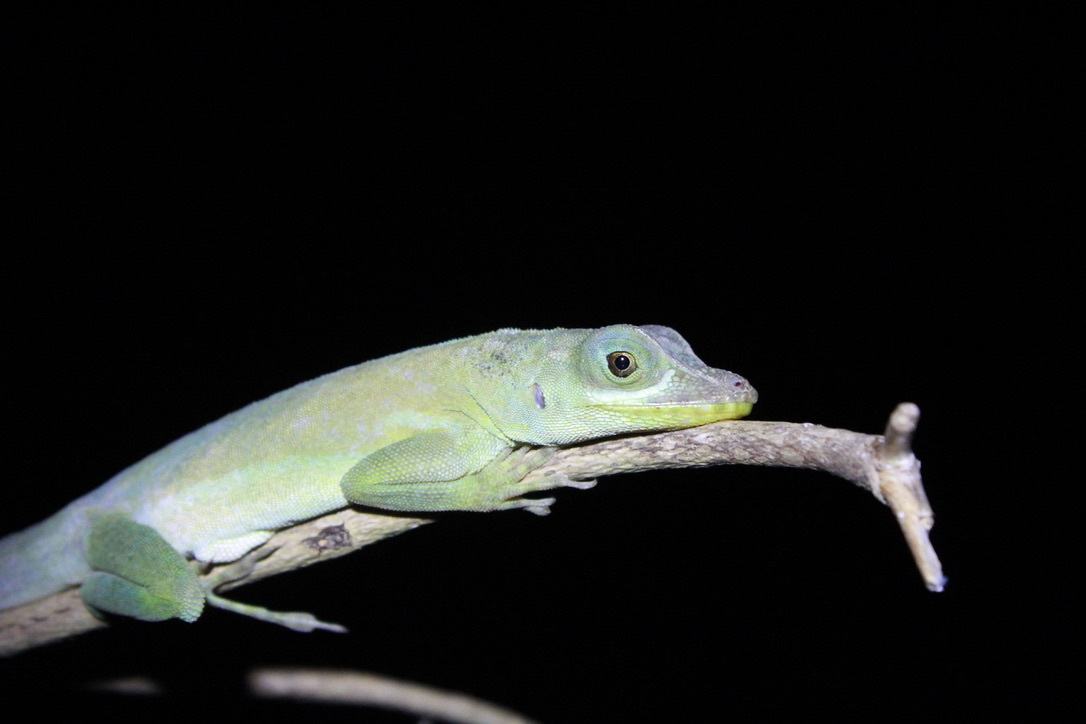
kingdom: Animalia
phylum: Chordata
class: Squamata
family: Dactyloidae
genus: Anolis
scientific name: Anolis richardii
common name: Grenada tree anole
